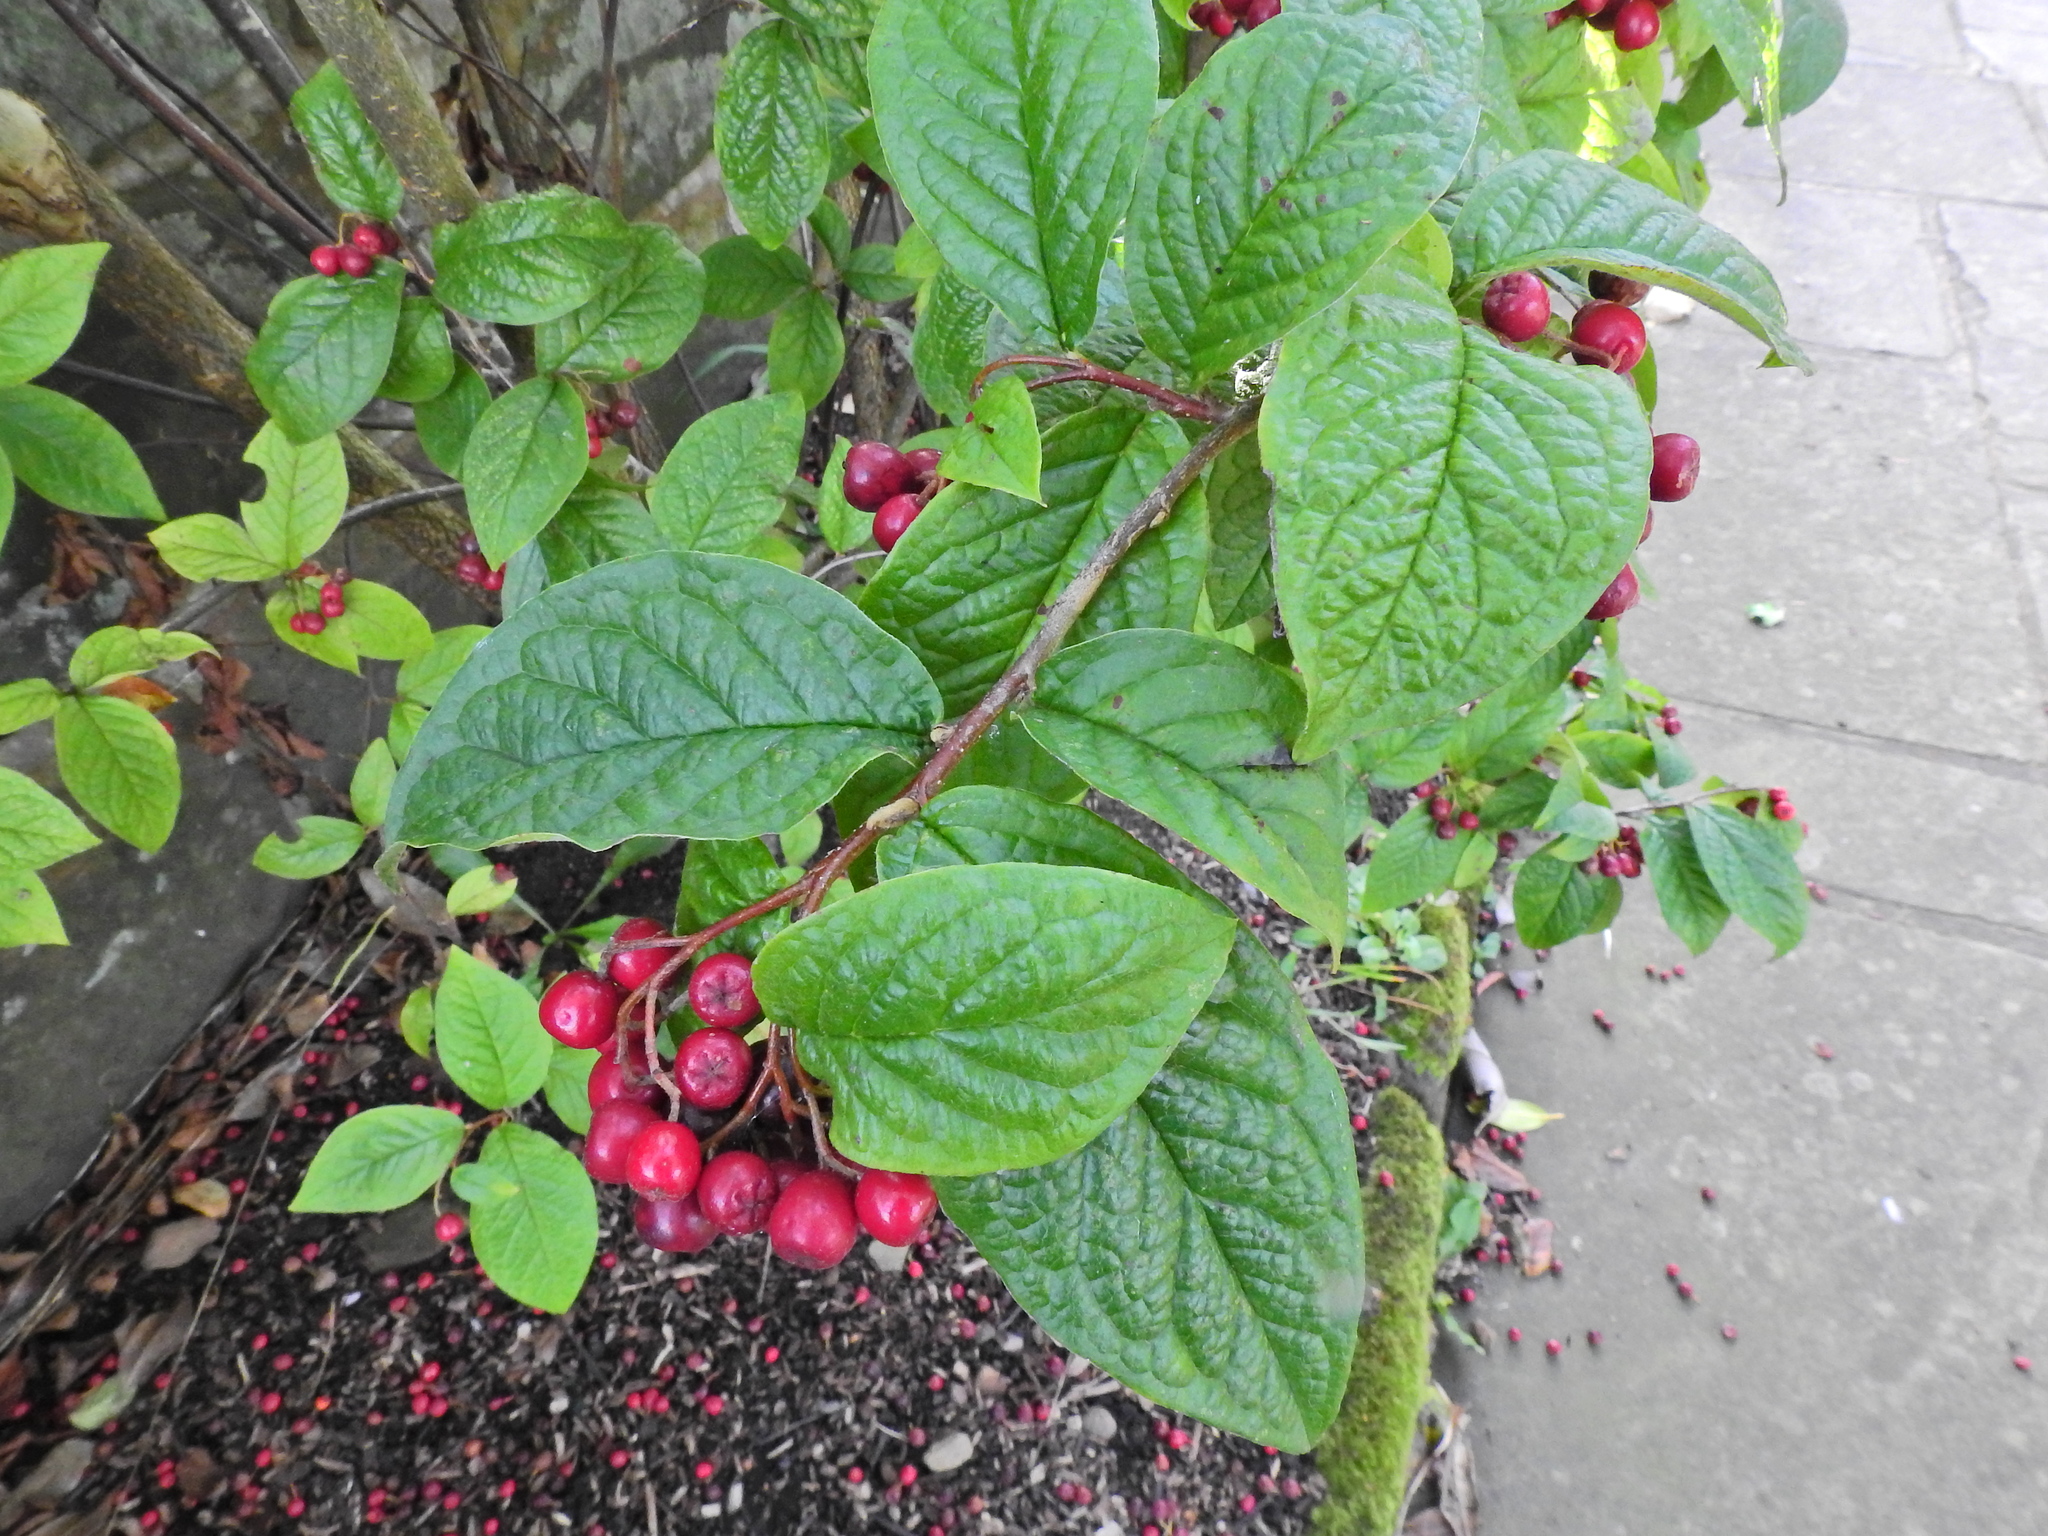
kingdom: Plantae
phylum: Tracheophyta
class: Magnoliopsida
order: Rosales
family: Rosaceae
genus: Cotoneaster
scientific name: Cotoneaster bullatus
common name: Hollyberry cotoneaster
